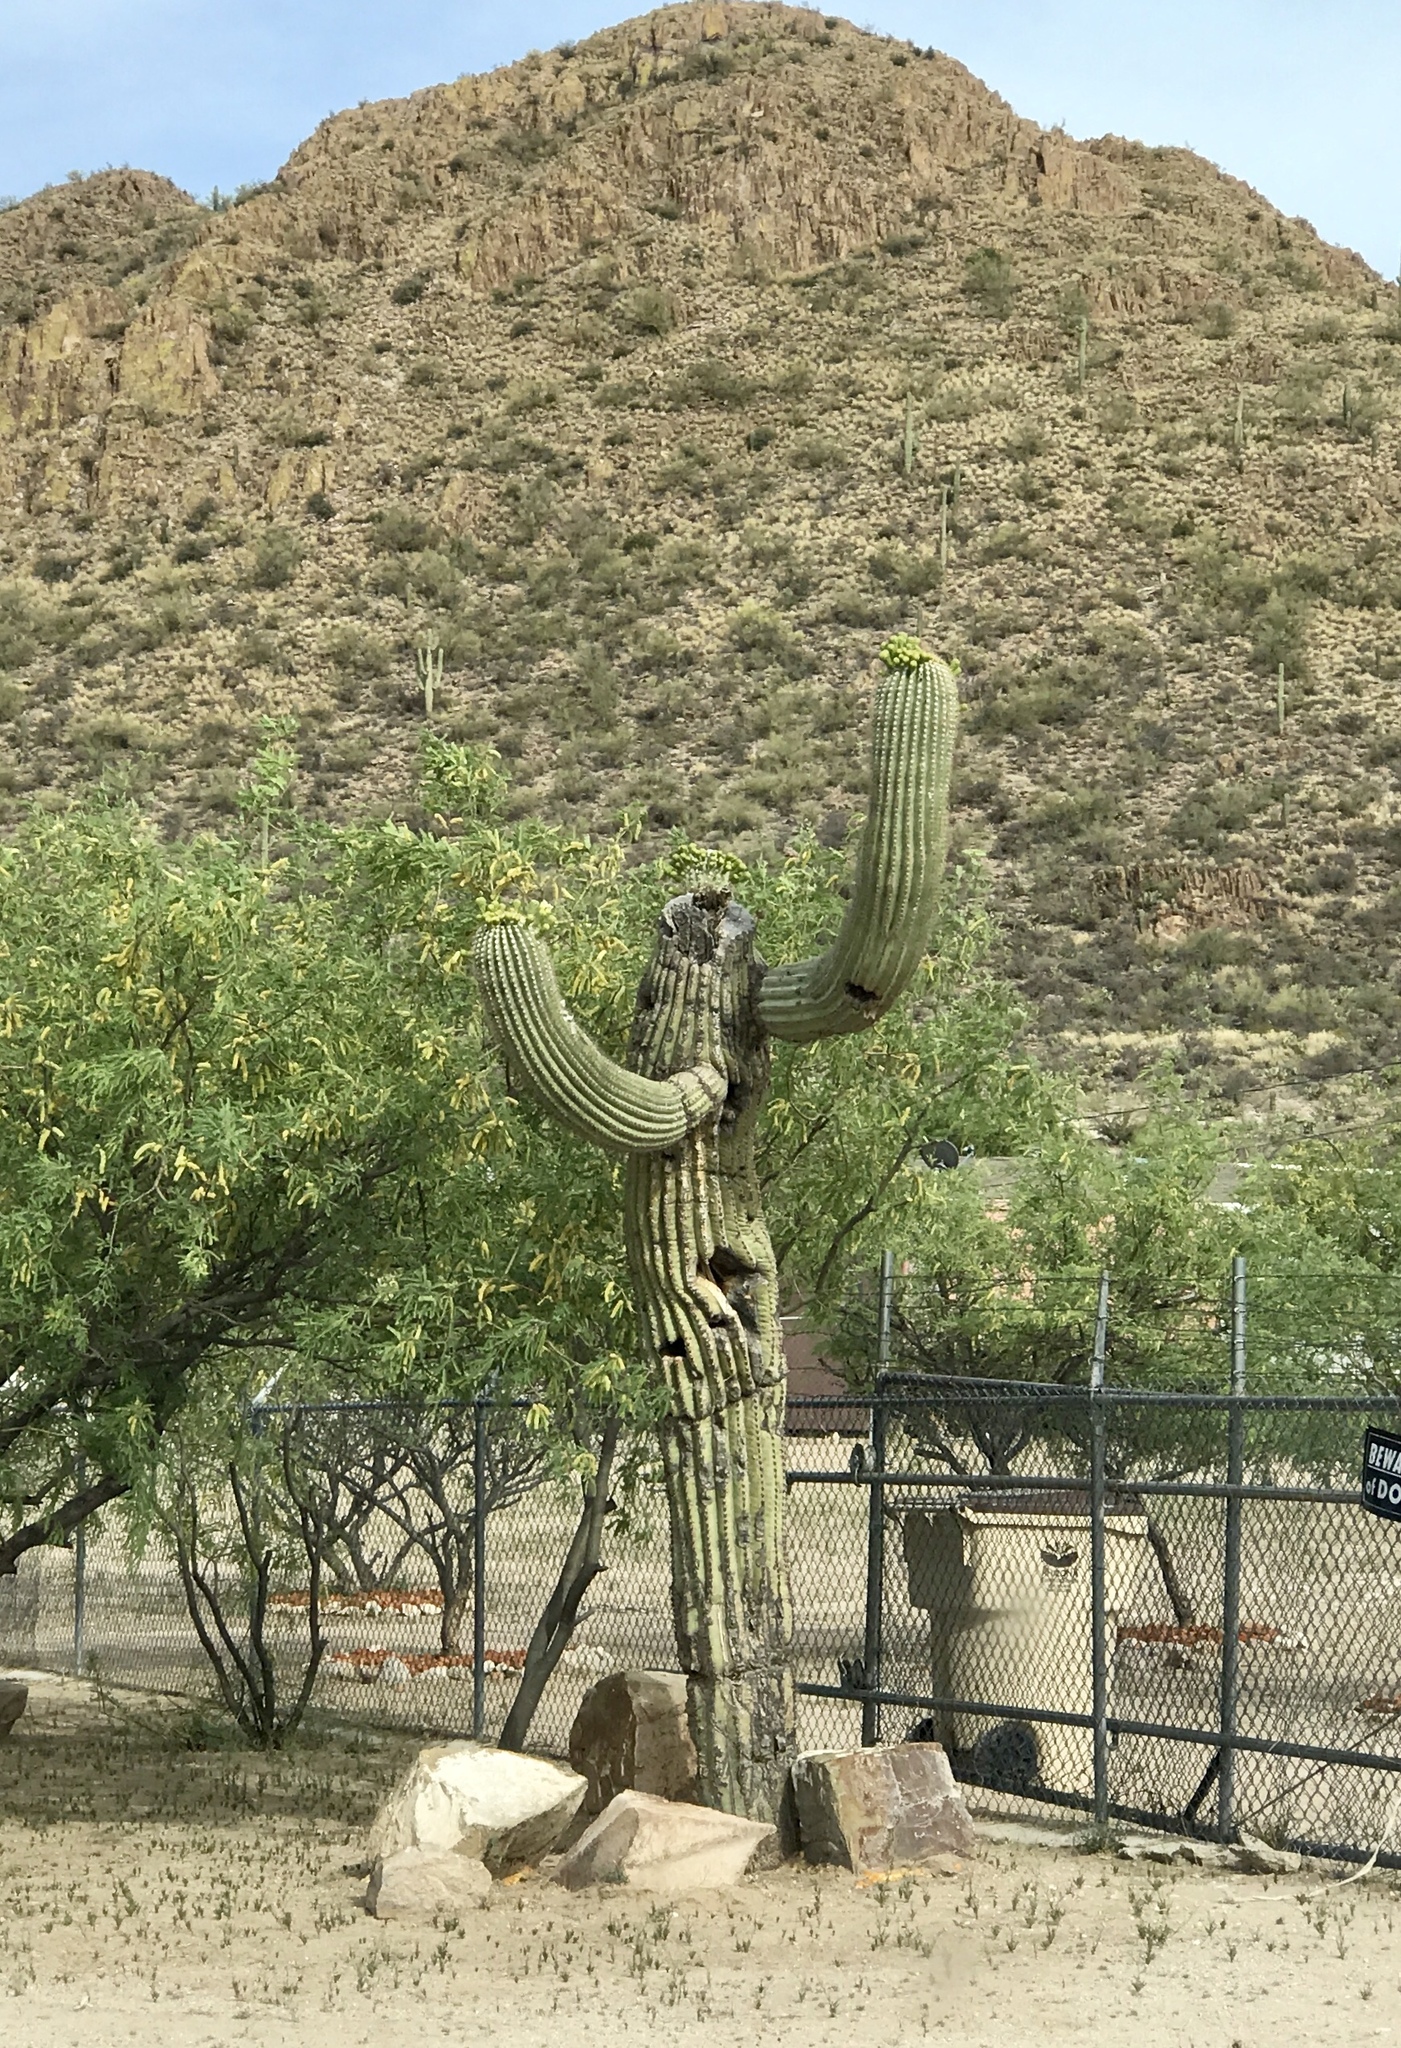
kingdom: Plantae
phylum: Tracheophyta
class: Magnoliopsida
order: Caryophyllales
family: Cactaceae
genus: Carnegiea
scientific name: Carnegiea gigantea
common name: Saguaro
